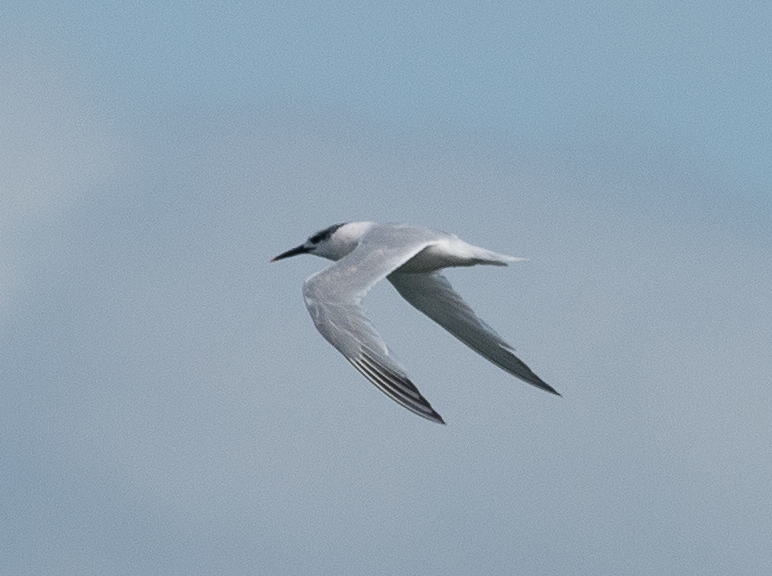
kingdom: Animalia
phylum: Chordata
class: Aves
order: Charadriiformes
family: Laridae
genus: Thalasseus
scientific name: Thalasseus sandvicensis
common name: Sandwich tern
